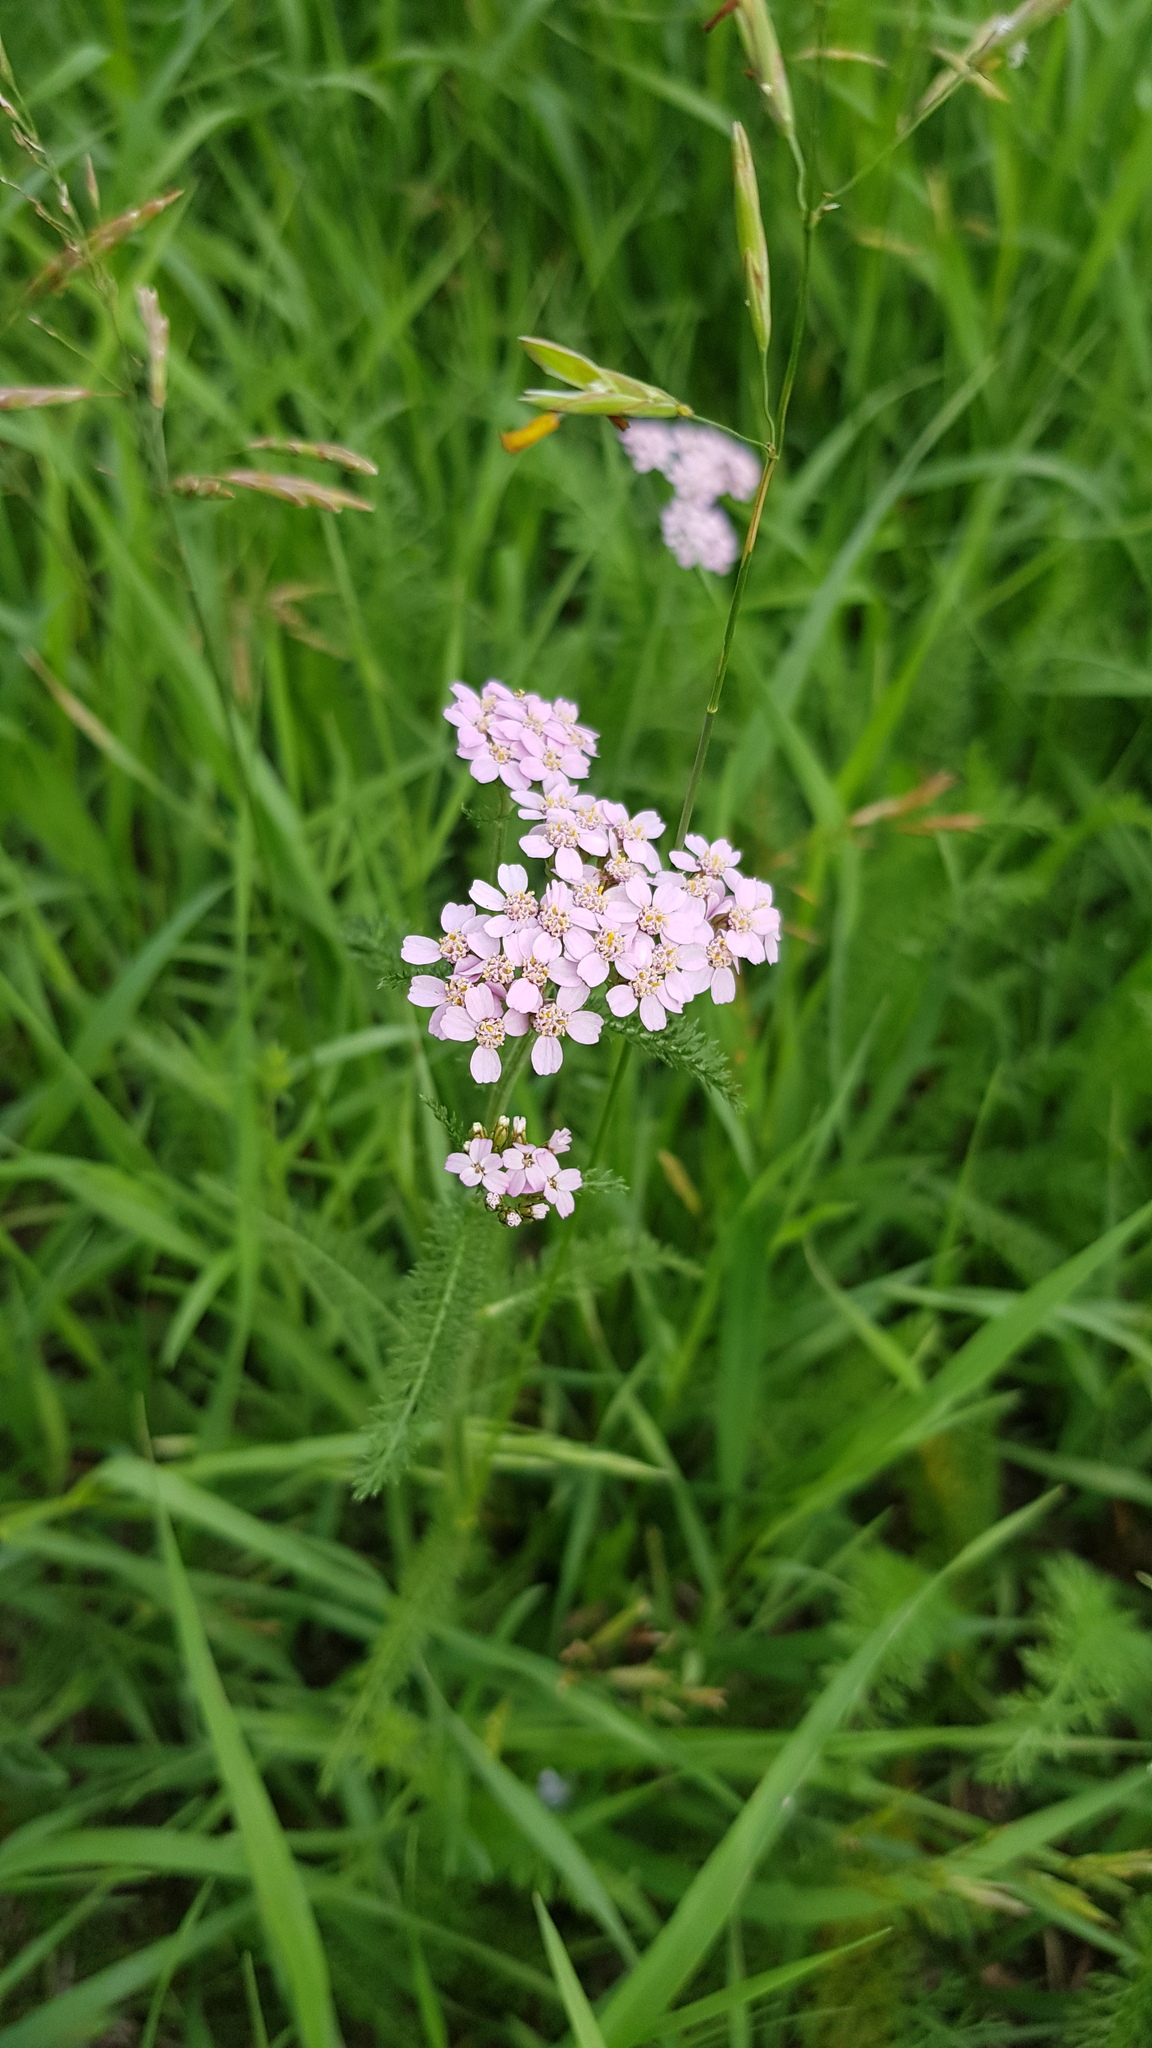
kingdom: Plantae
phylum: Tracheophyta
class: Magnoliopsida
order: Asterales
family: Asteraceae
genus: Achillea
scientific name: Achillea asiatica
